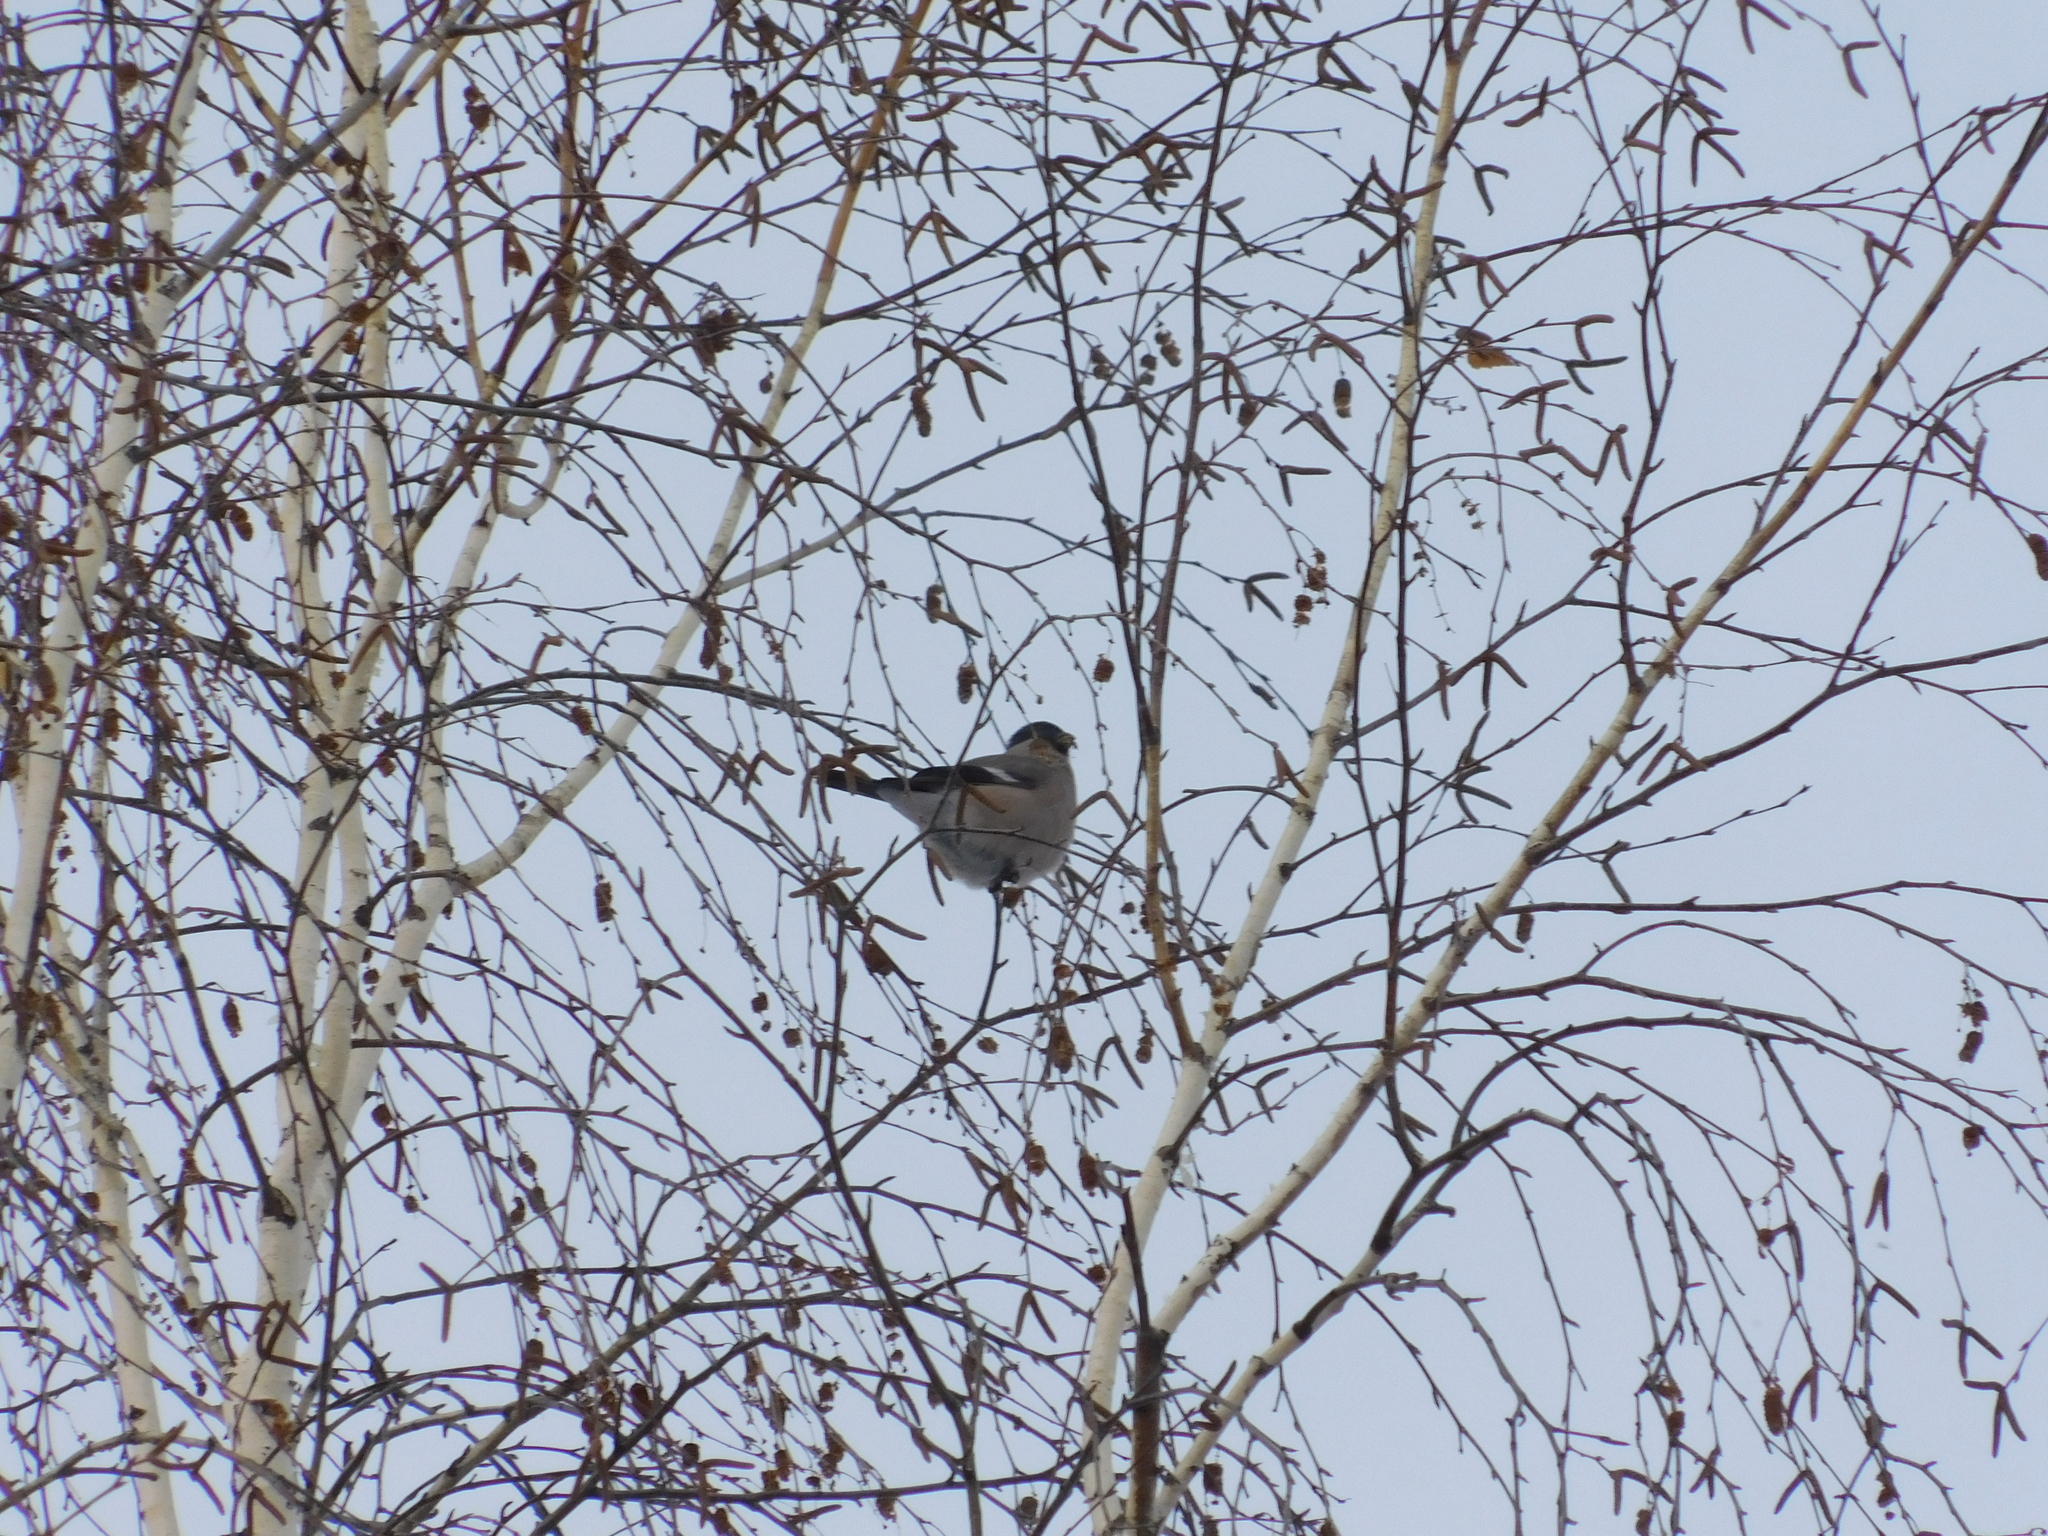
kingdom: Animalia
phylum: Chordata
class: Aves
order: Passeriformes
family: Fringillidae
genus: Pyrrhula
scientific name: Pyrrhula pyrrhula
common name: Eurasian bullfinch
